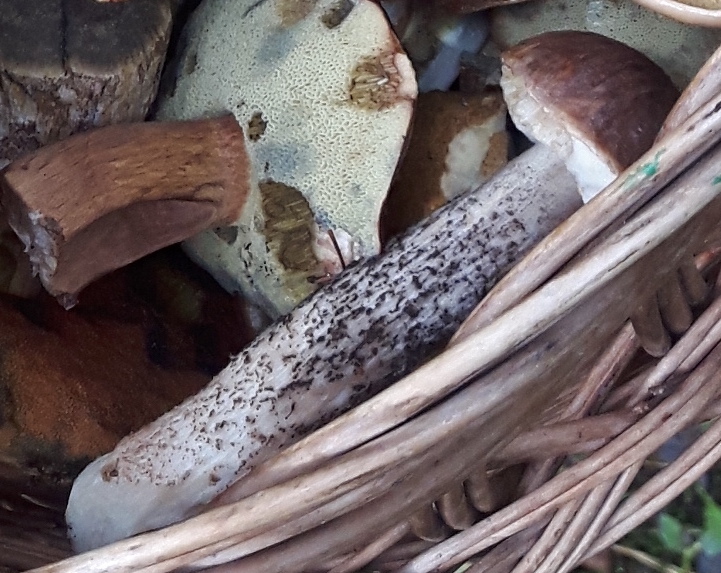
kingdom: Fungi
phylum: Basidiomycota
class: Agaricomycetes
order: Boletales
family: Boletaceae
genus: Leccinum
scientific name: Leccinum scabrum
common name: Blushing bolete
